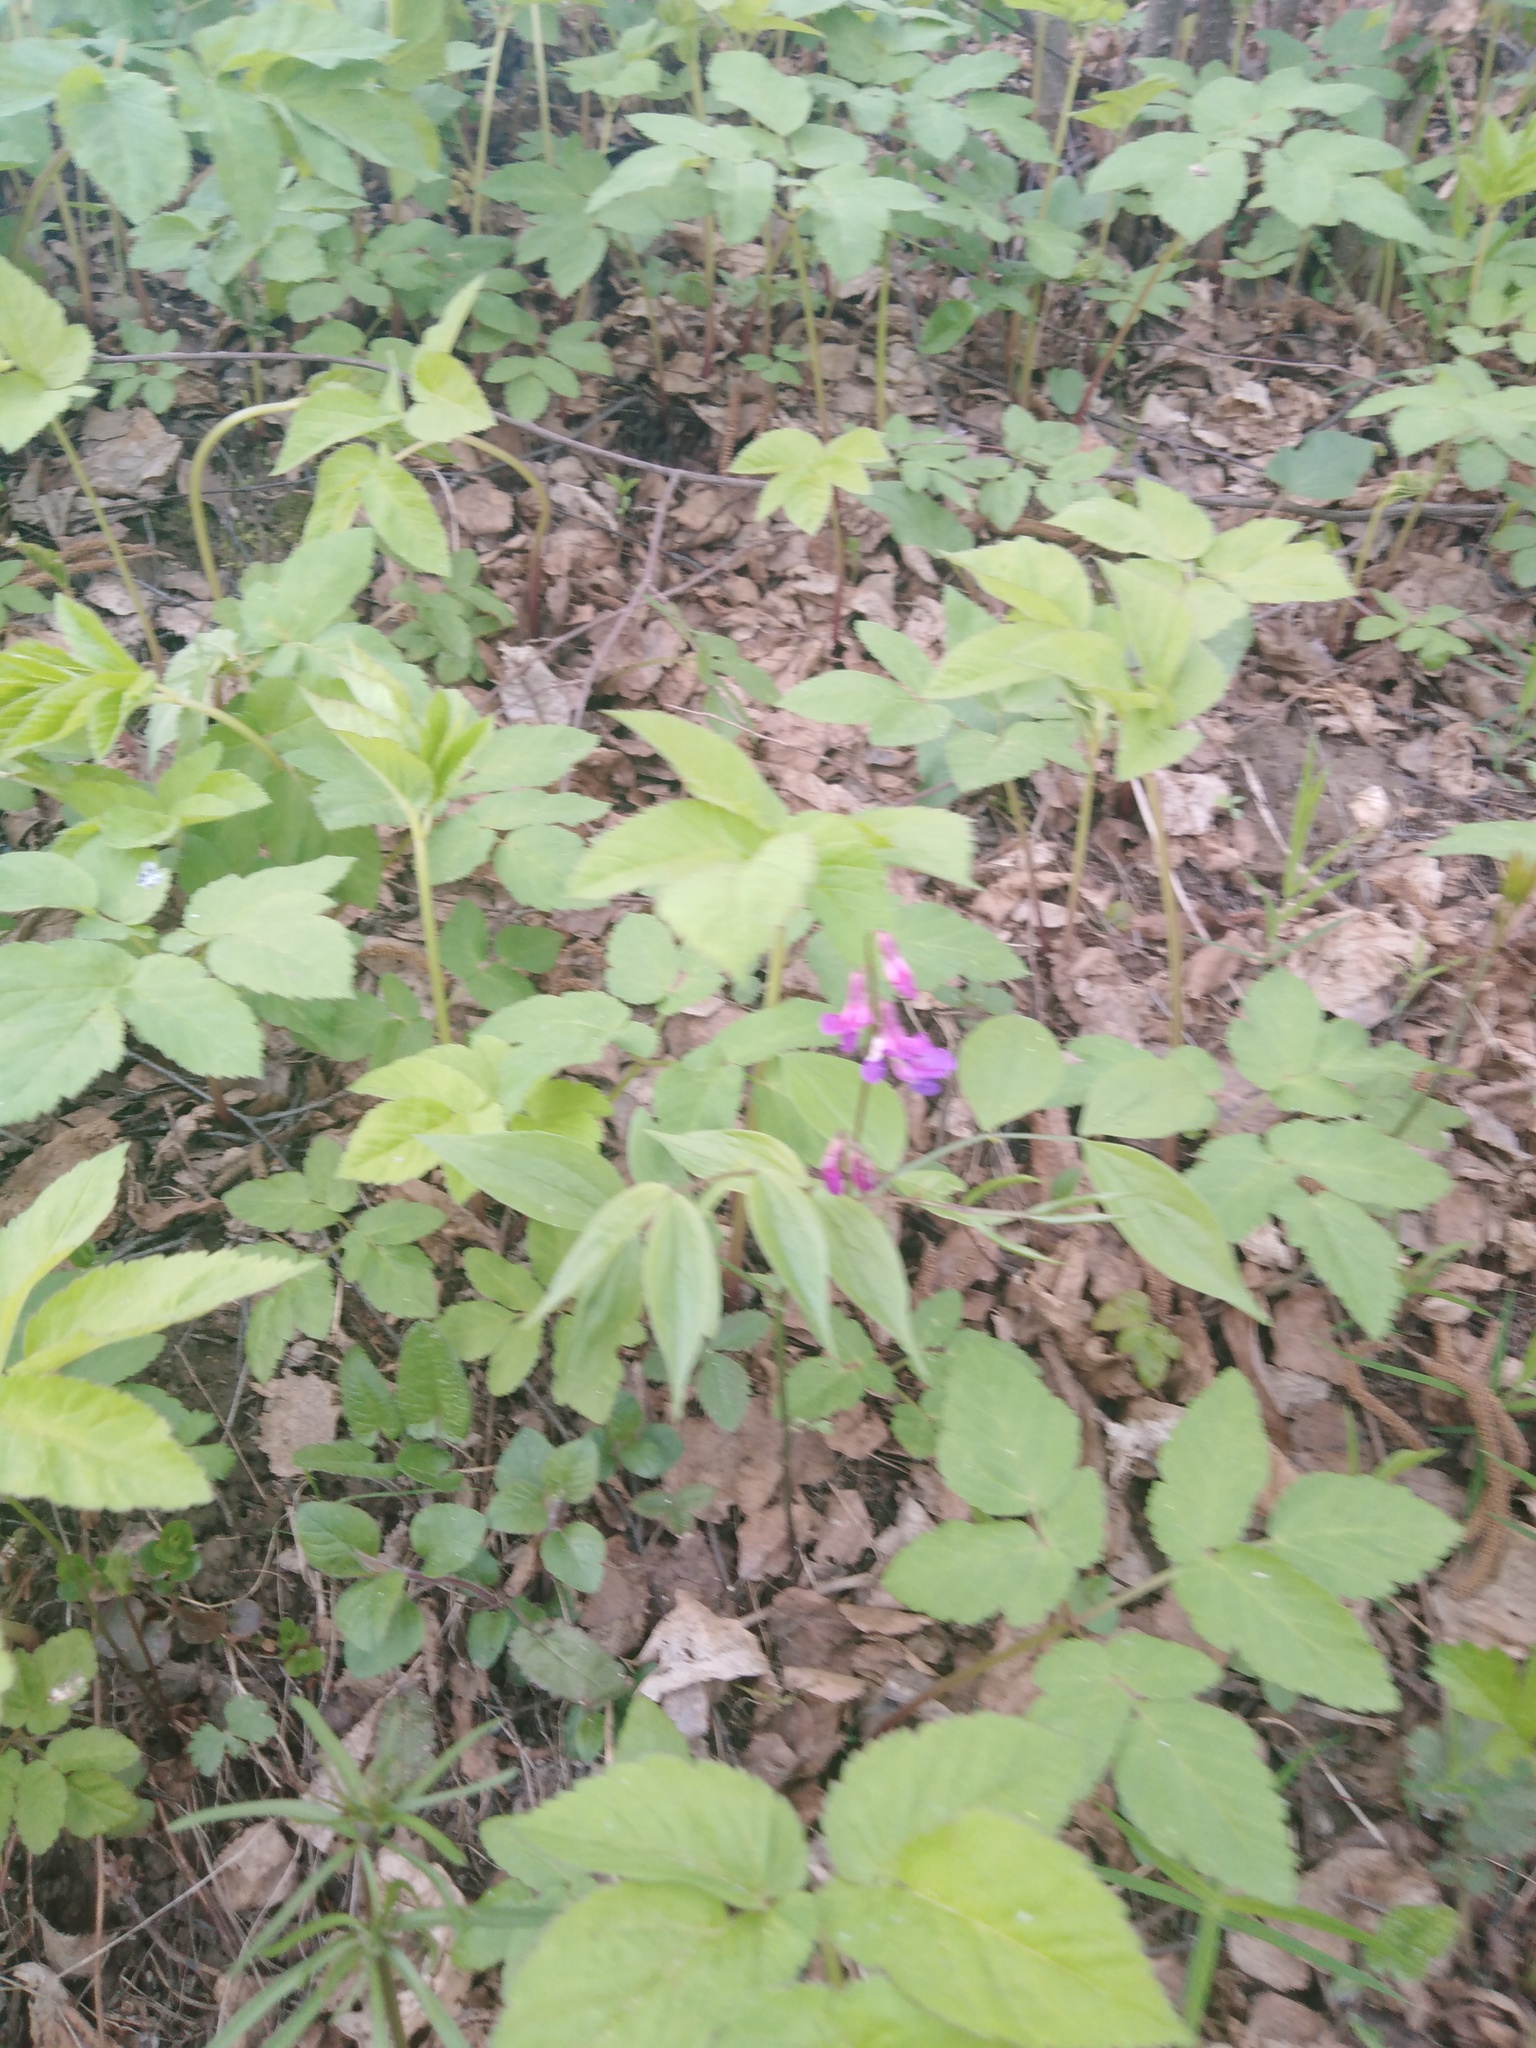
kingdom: Plantae
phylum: Tracheophyta
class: Magnoliopsida
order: Fabales
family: Fabaceae
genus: Lathyrus
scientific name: Lathyrus vernus
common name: Spring pea
